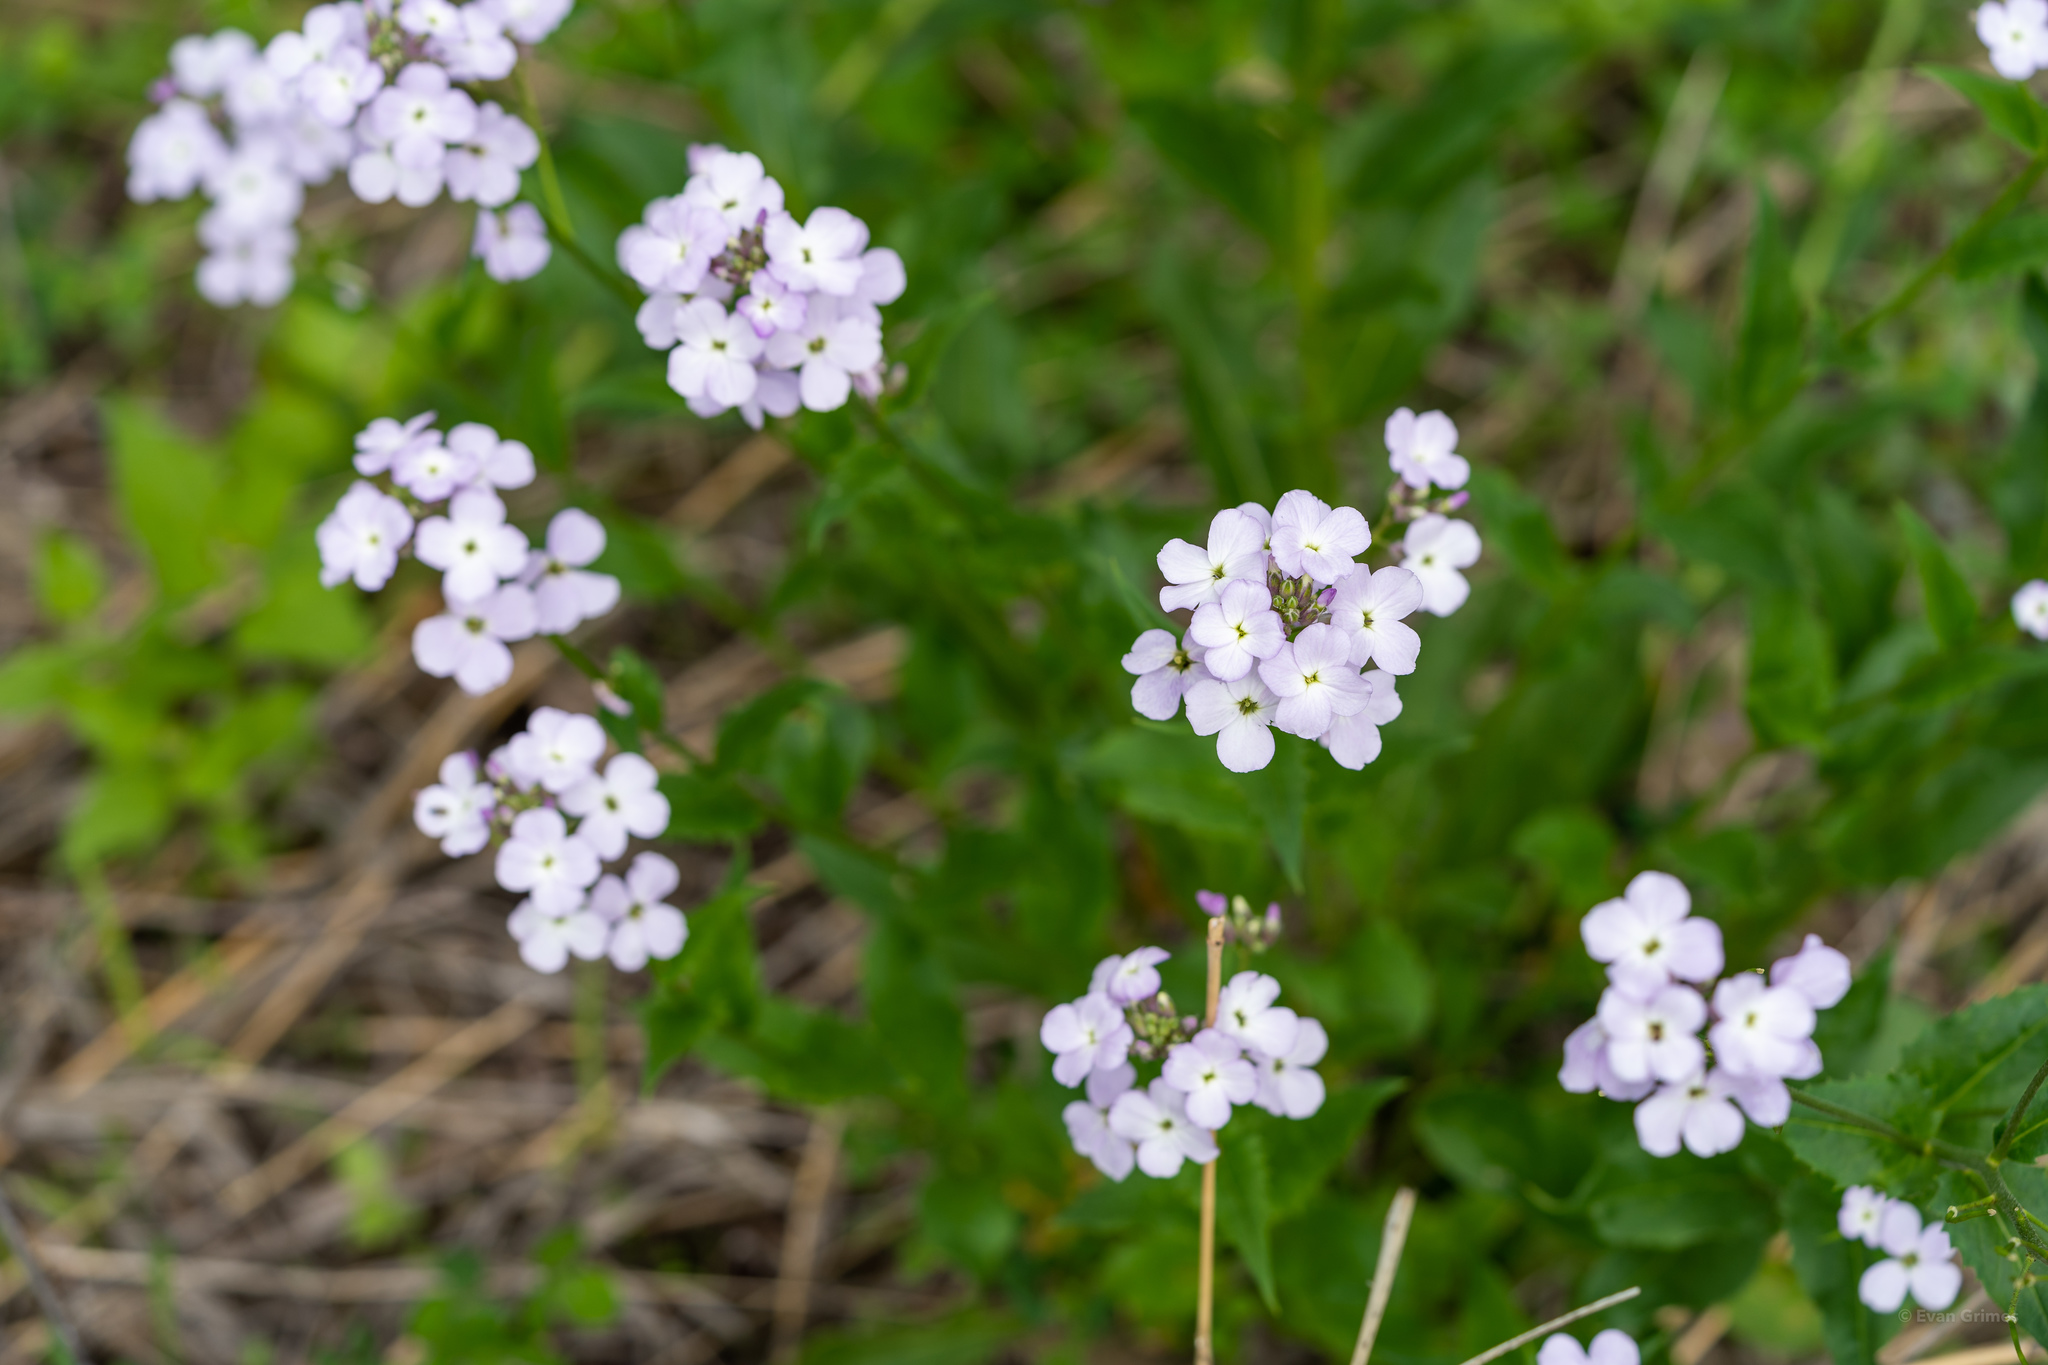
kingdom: Plantae
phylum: Tracheophyta
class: Magnoliopsida
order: Brassicales
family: Brassicaceae
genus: Hesperis
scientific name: Hesperis matronalis
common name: Dame's-violet
